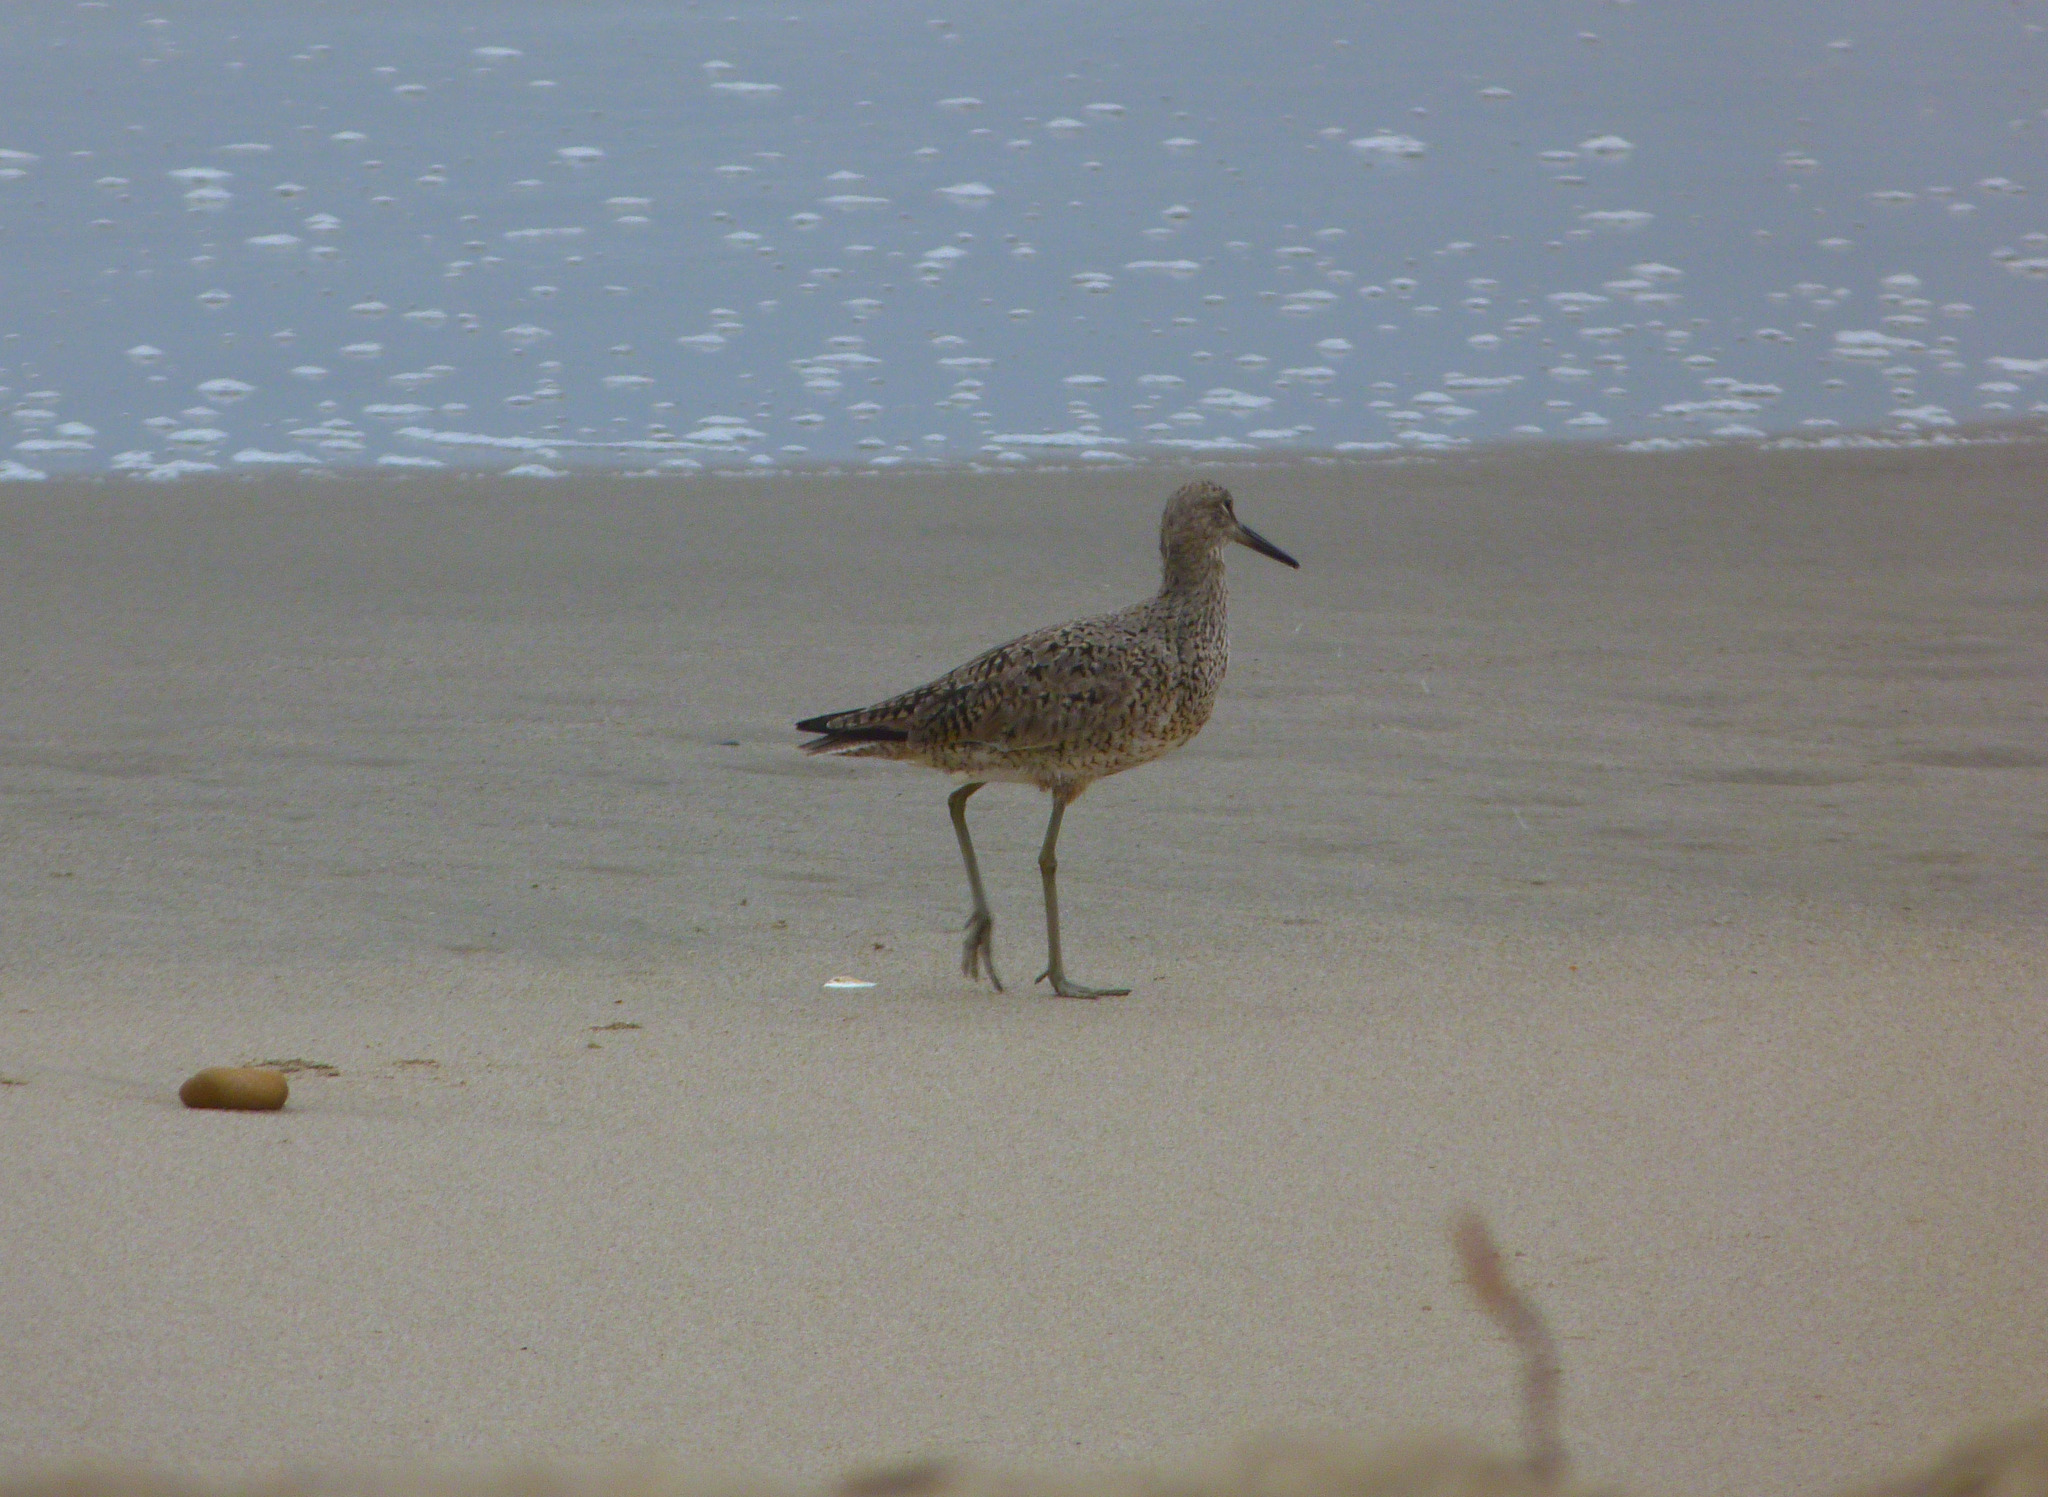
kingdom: Animalia
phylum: Chordata
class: Aves
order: Charadriiformes
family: Scolopacidae
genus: Tringa
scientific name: Tringa semipalmata
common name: Willet
